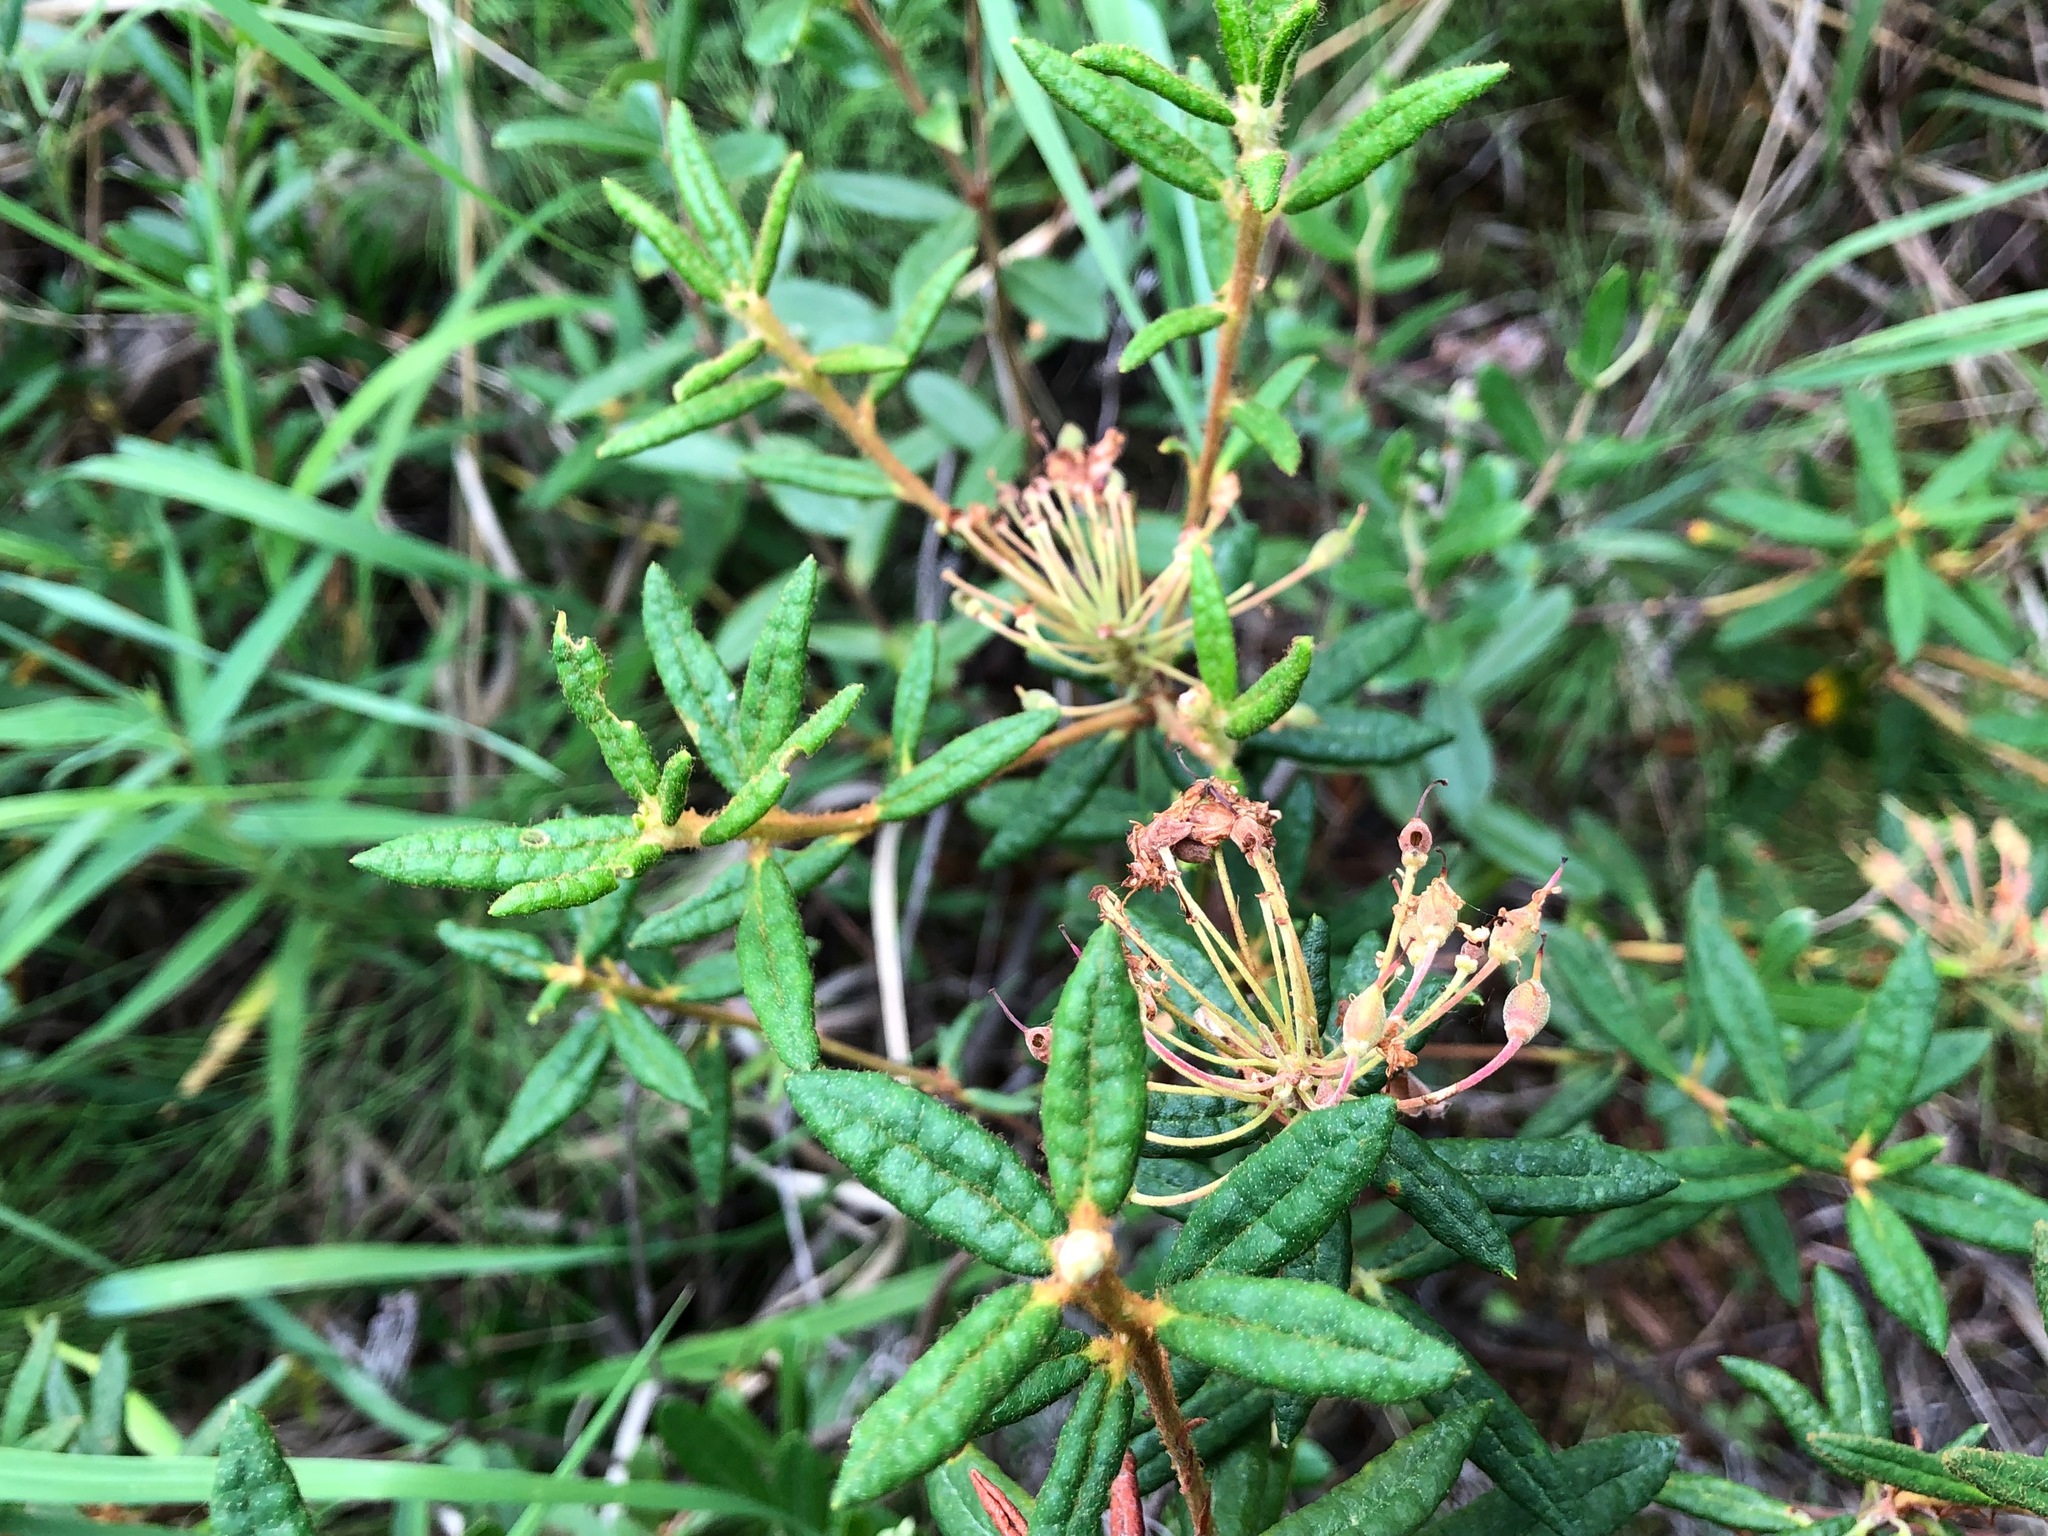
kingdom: Plantae
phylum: Tracheophyta
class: Magnoliopsida
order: Ericales
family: Ericaceae
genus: Rhododendron
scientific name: Rhododendron groenlandicum
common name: Bog labrador tea
